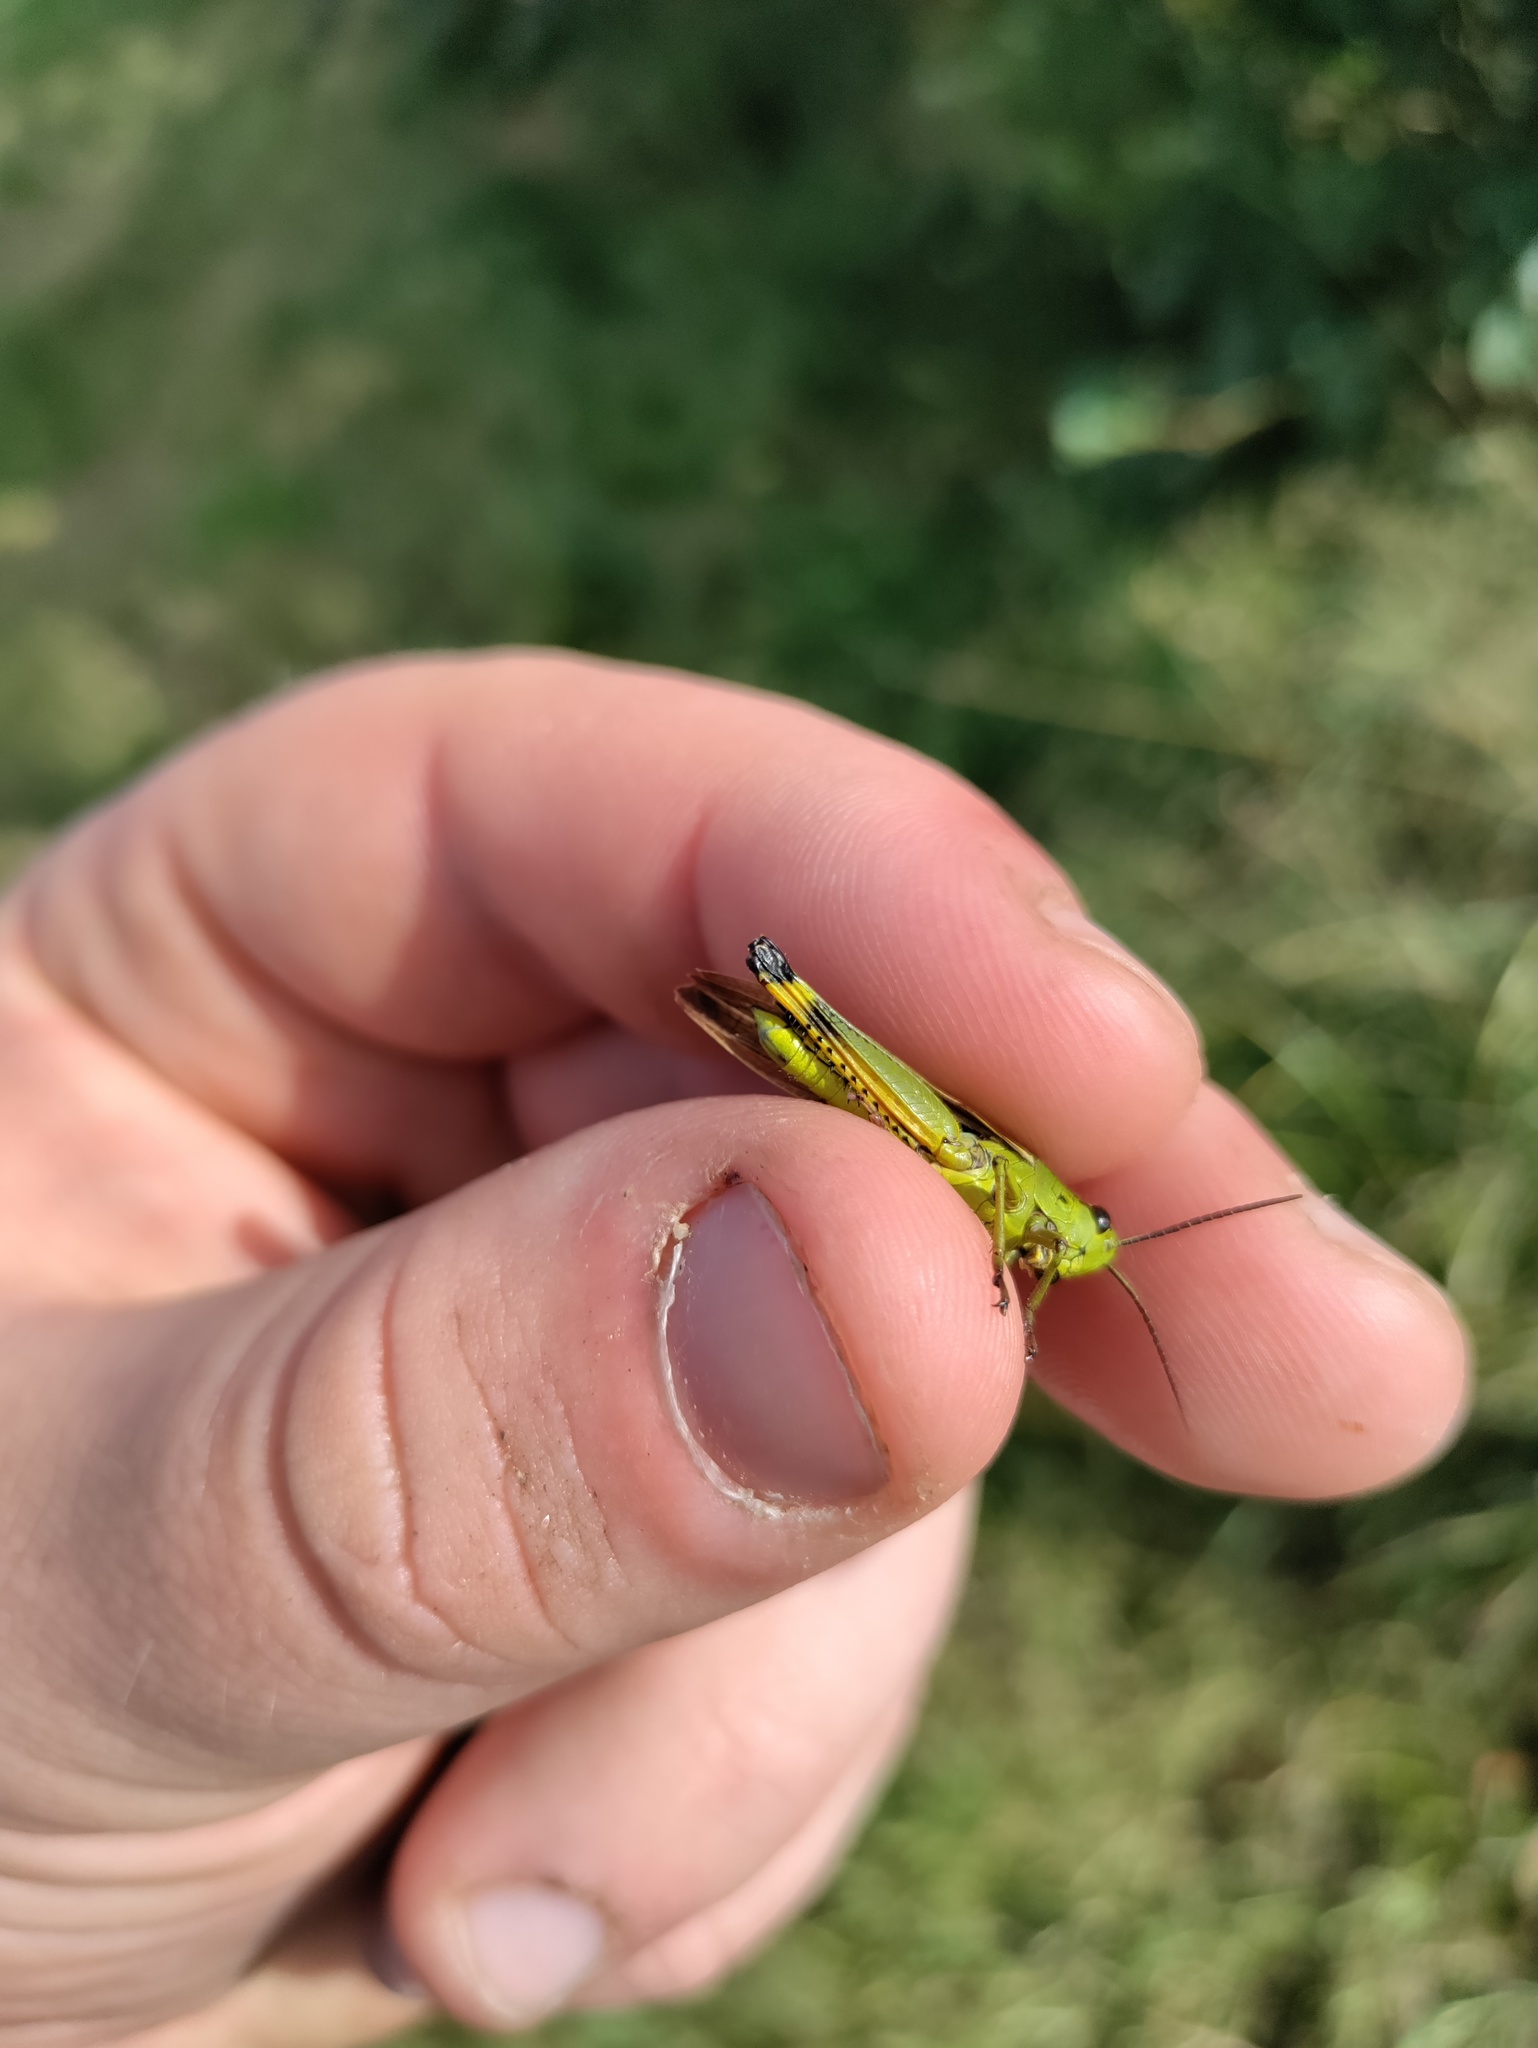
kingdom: Animalia
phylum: Arthropoda
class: Insecta
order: Orthoptera
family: Acrididae
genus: Stethophyma
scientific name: Stethophyma grossum
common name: Large marsh grasshopper
